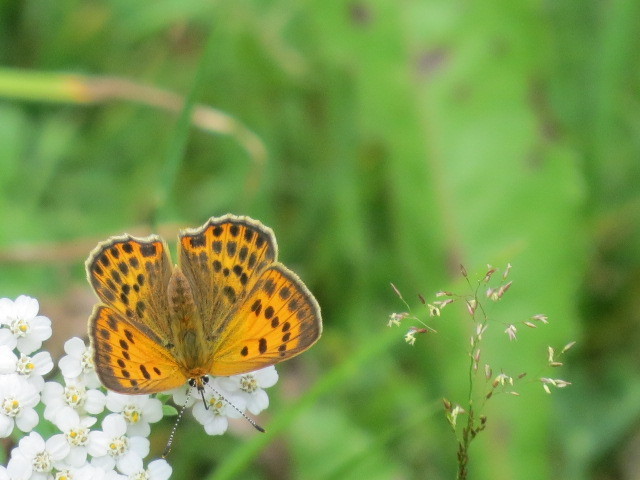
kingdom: Animalia
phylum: Arthropoda
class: Insecta
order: Lepidoptera
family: Lycaenidae
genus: Lycaena
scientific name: Lycaena virgaureae
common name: Scarce copper
